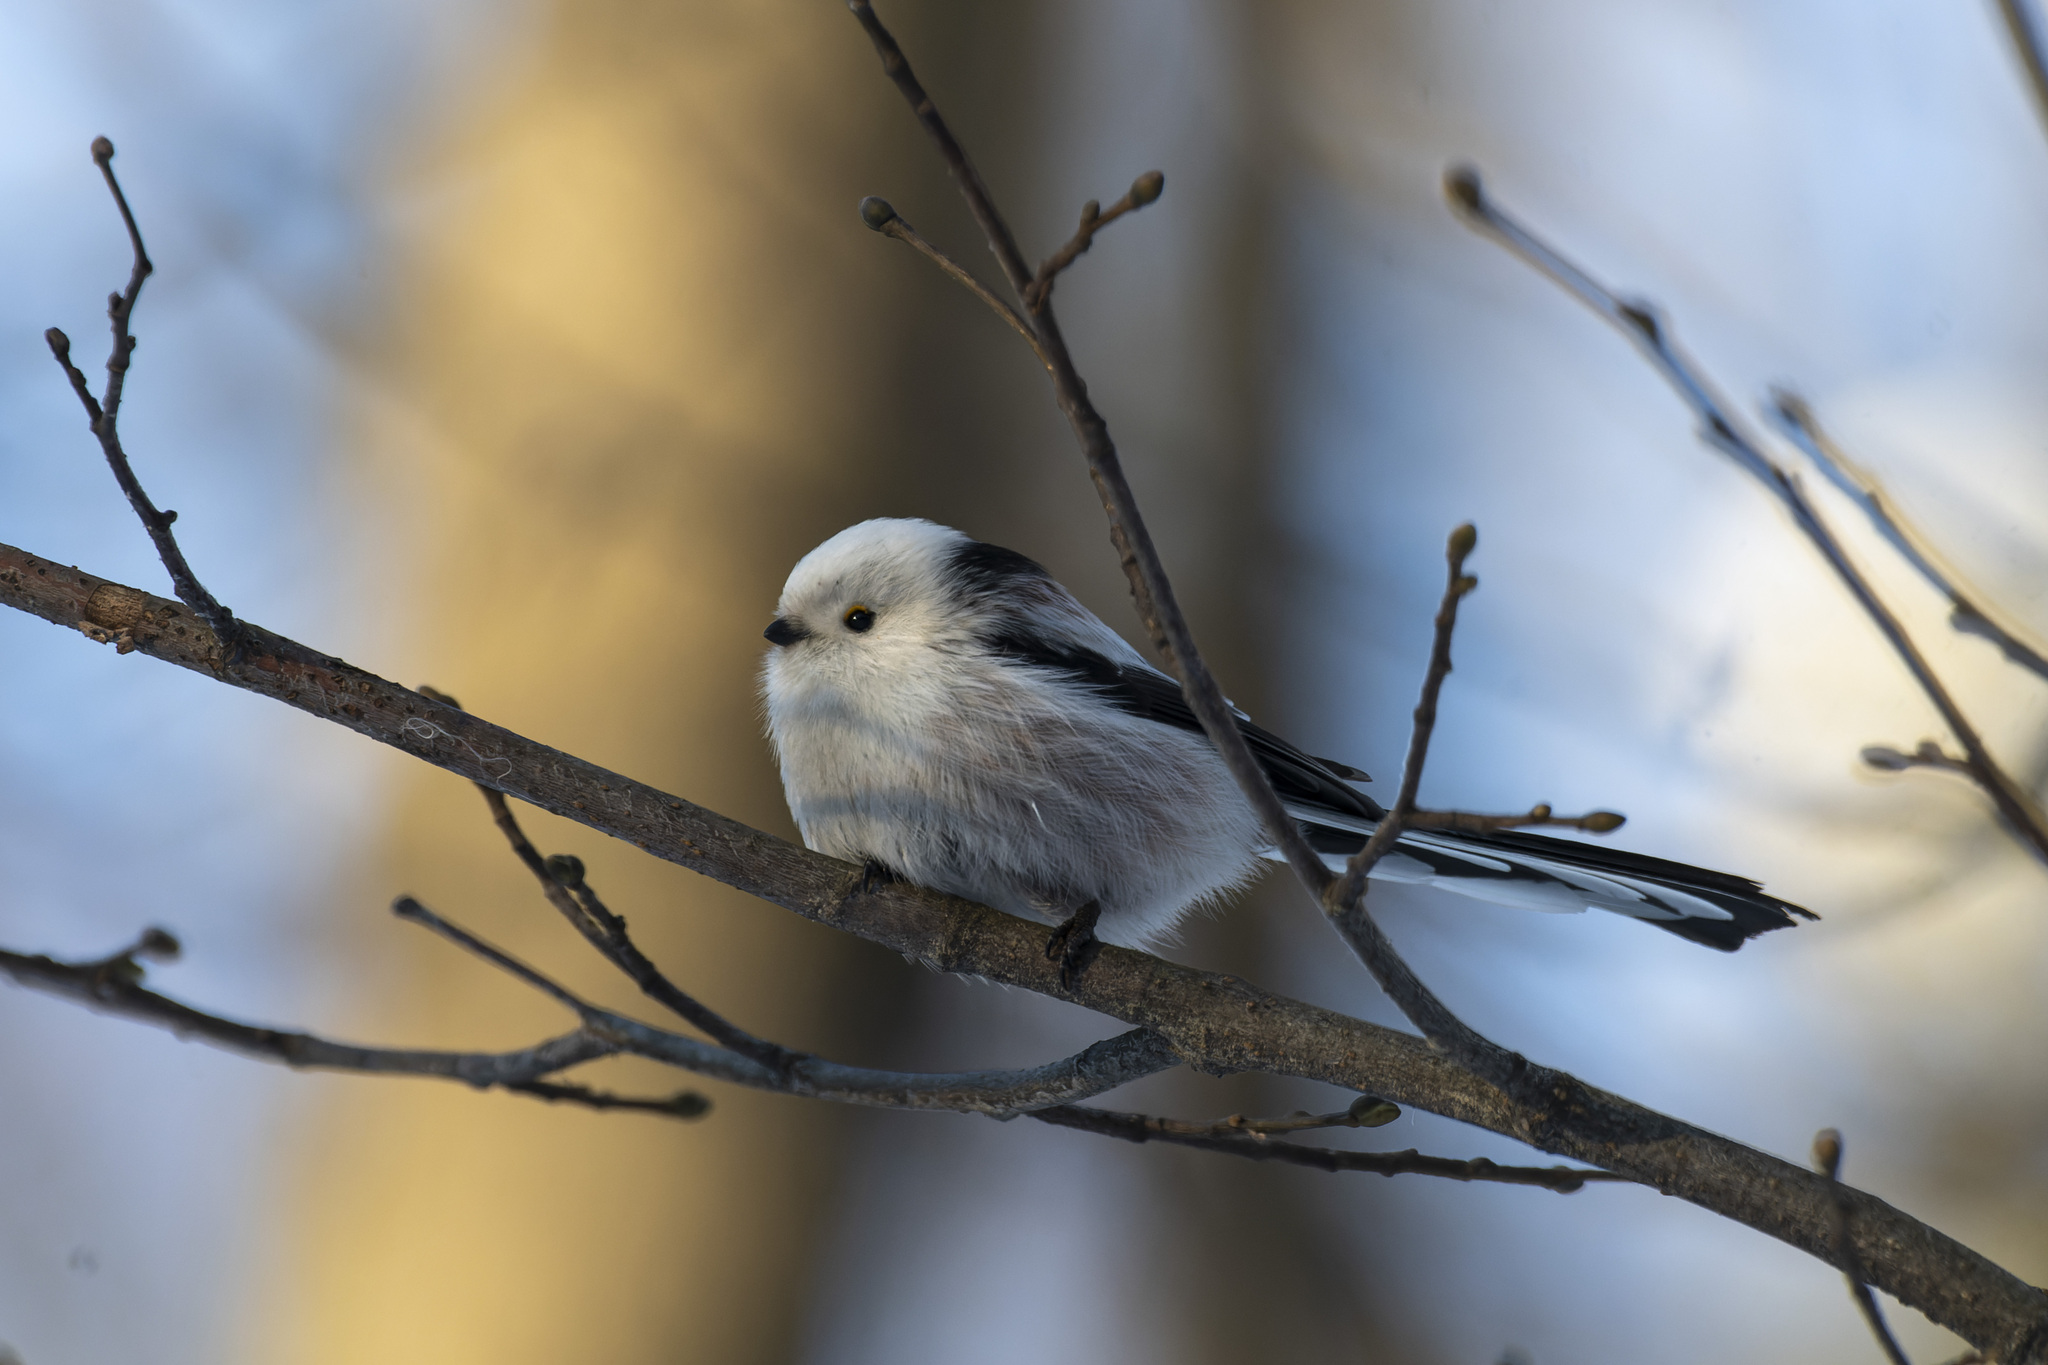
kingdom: Animalia
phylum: Chordata
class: Aves
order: Passeriformes
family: Aegithalidae
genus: Aegithalos
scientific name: Aegithalos caudatus
